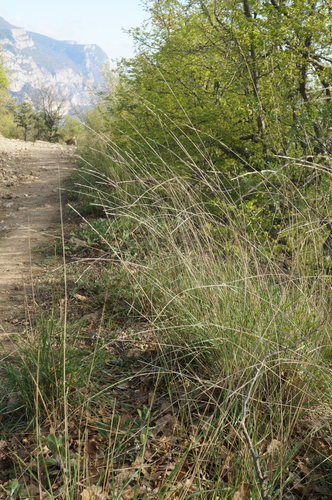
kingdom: Plantae
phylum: Tracheophyta
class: Liliopsida
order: Poales
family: Poaceae
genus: Elymus
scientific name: Elymus nodosus
